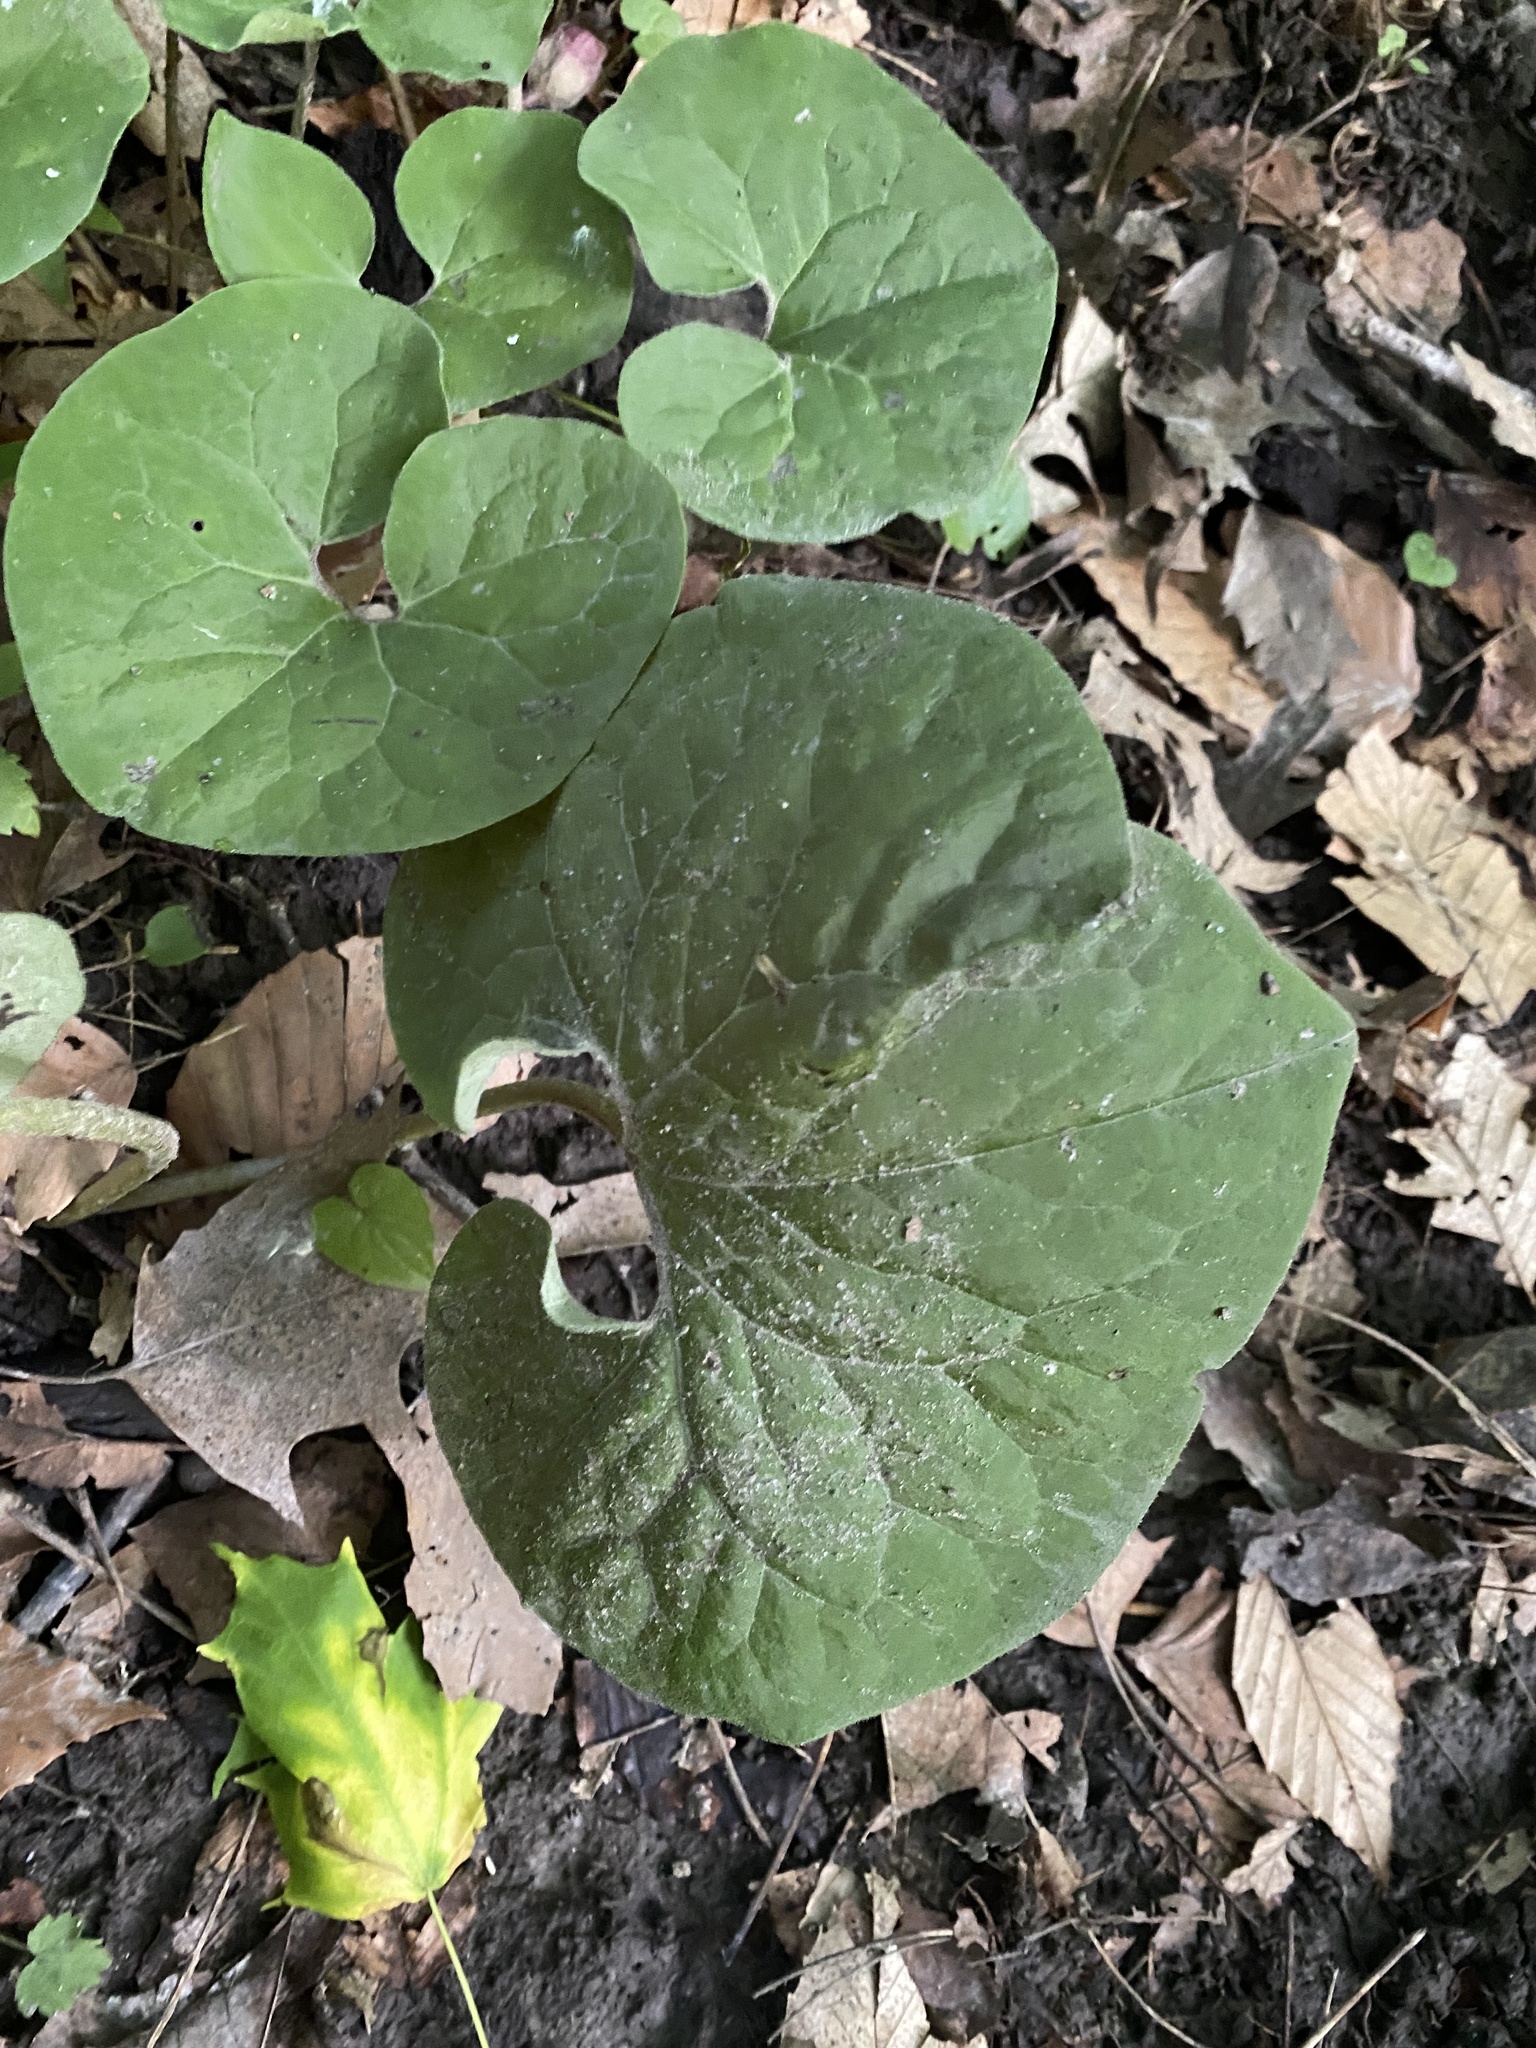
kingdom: Plantae
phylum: Tracheophyta
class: Magnoliopsida
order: Piperales
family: Aristolochiaceae
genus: Asarum
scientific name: Asarum canadense
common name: Wild ginger
